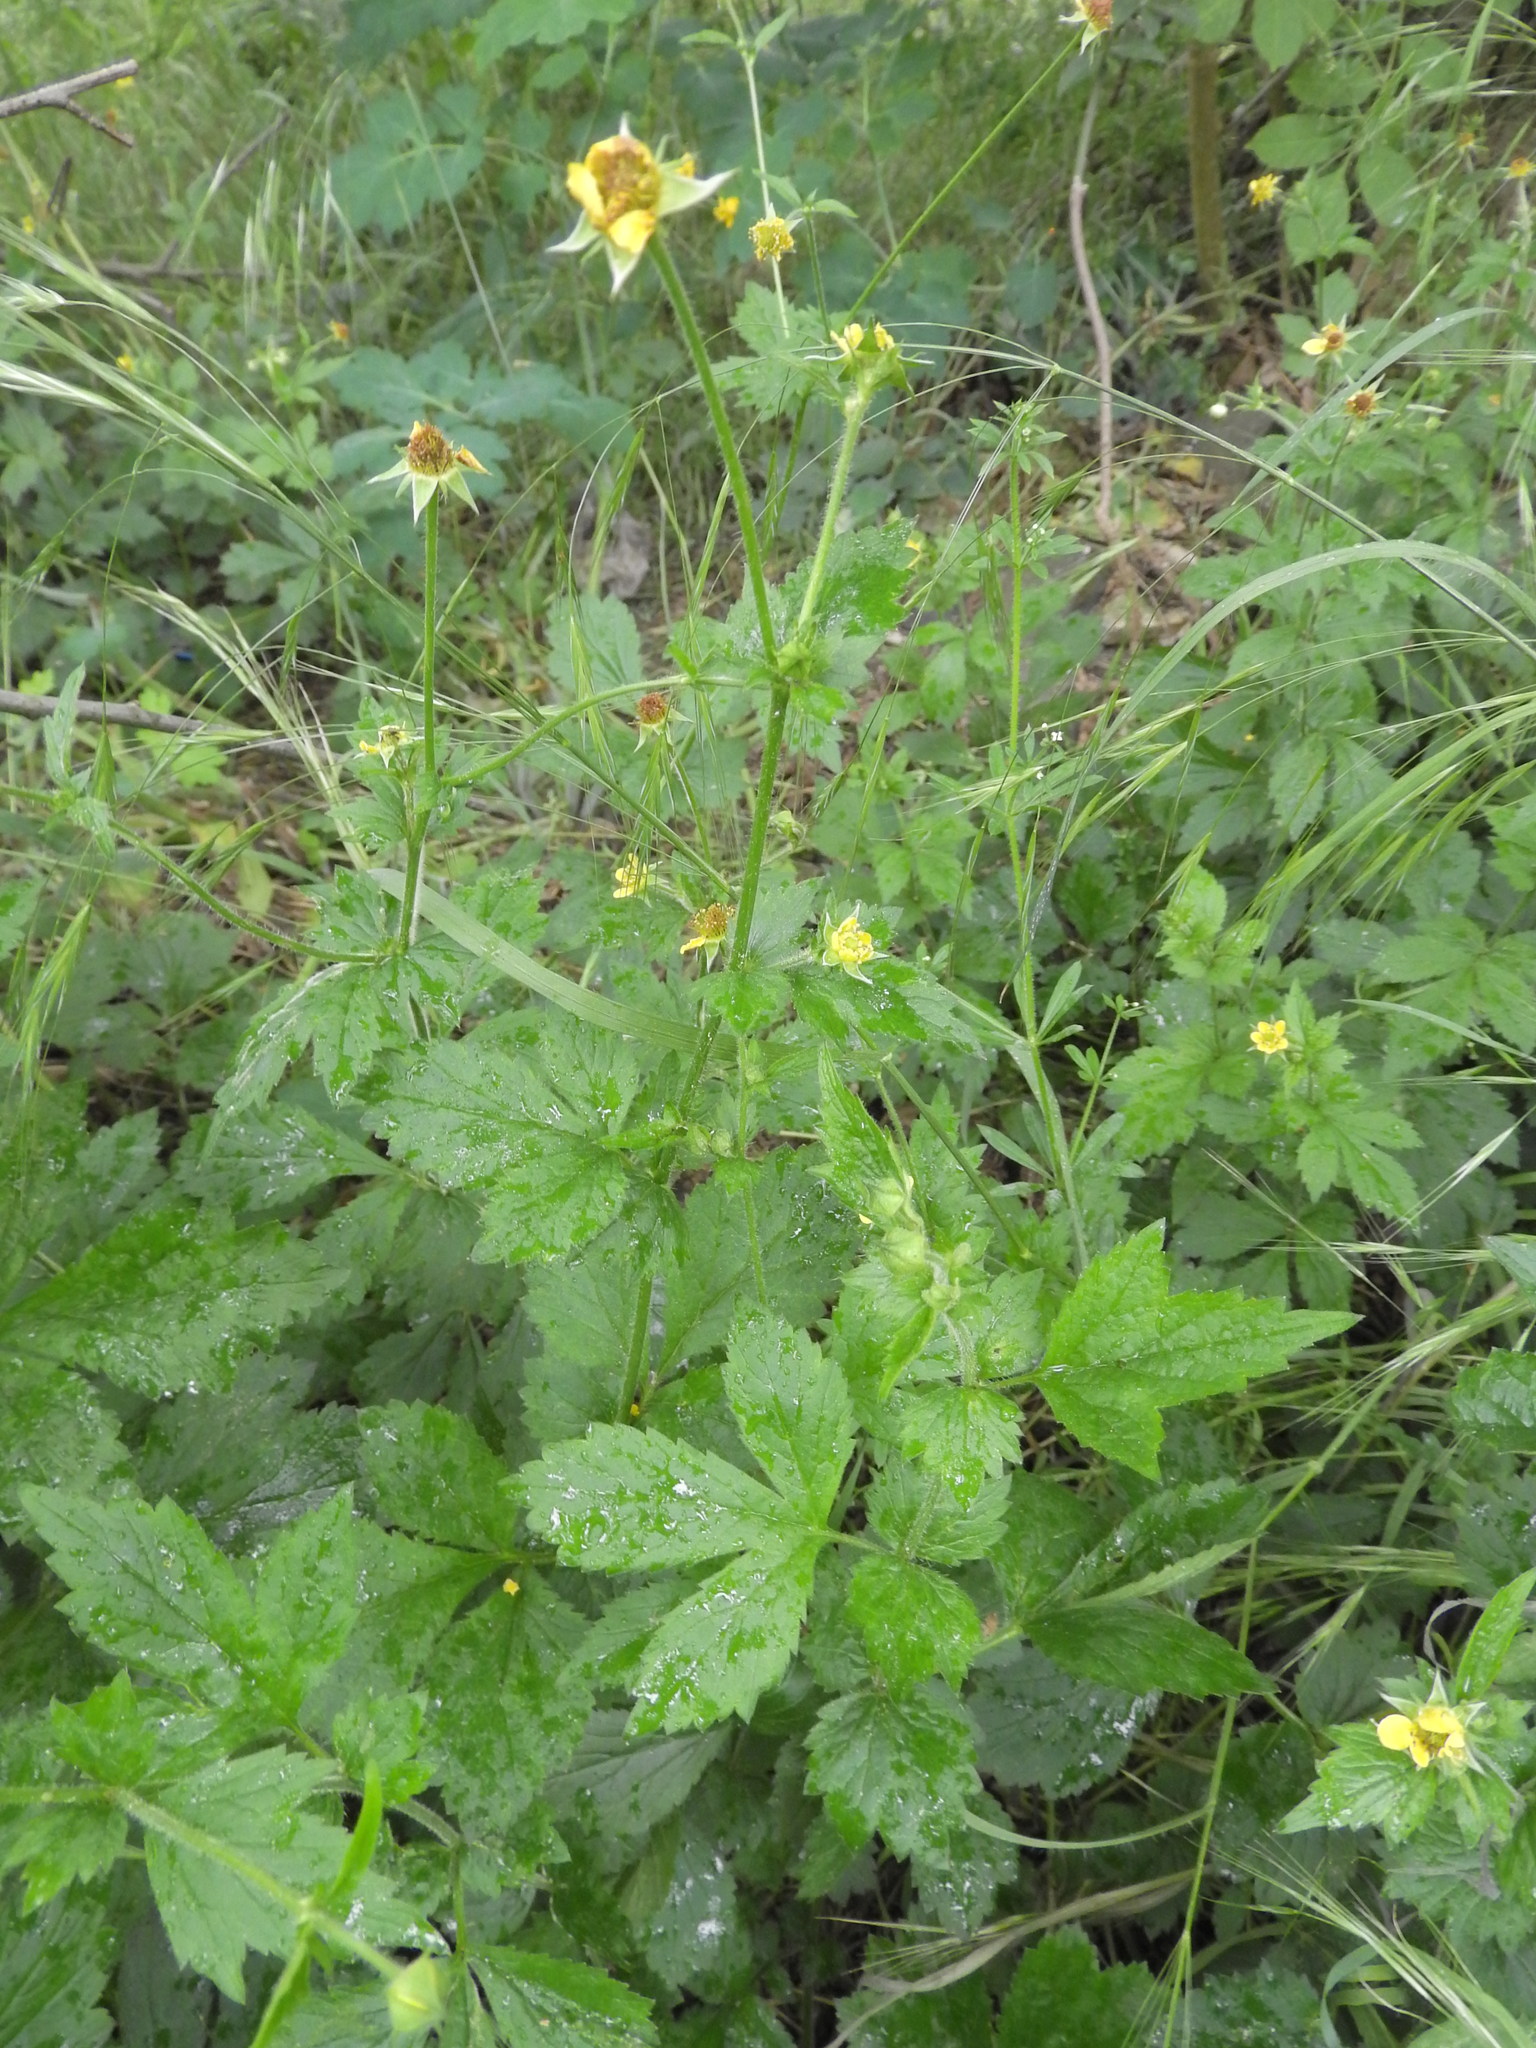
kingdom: Plantae
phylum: Tracheophyta
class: Magnoliopsida
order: Rosales
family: Rosaceae
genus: Geum
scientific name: Geum urbanum
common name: Wood avens
